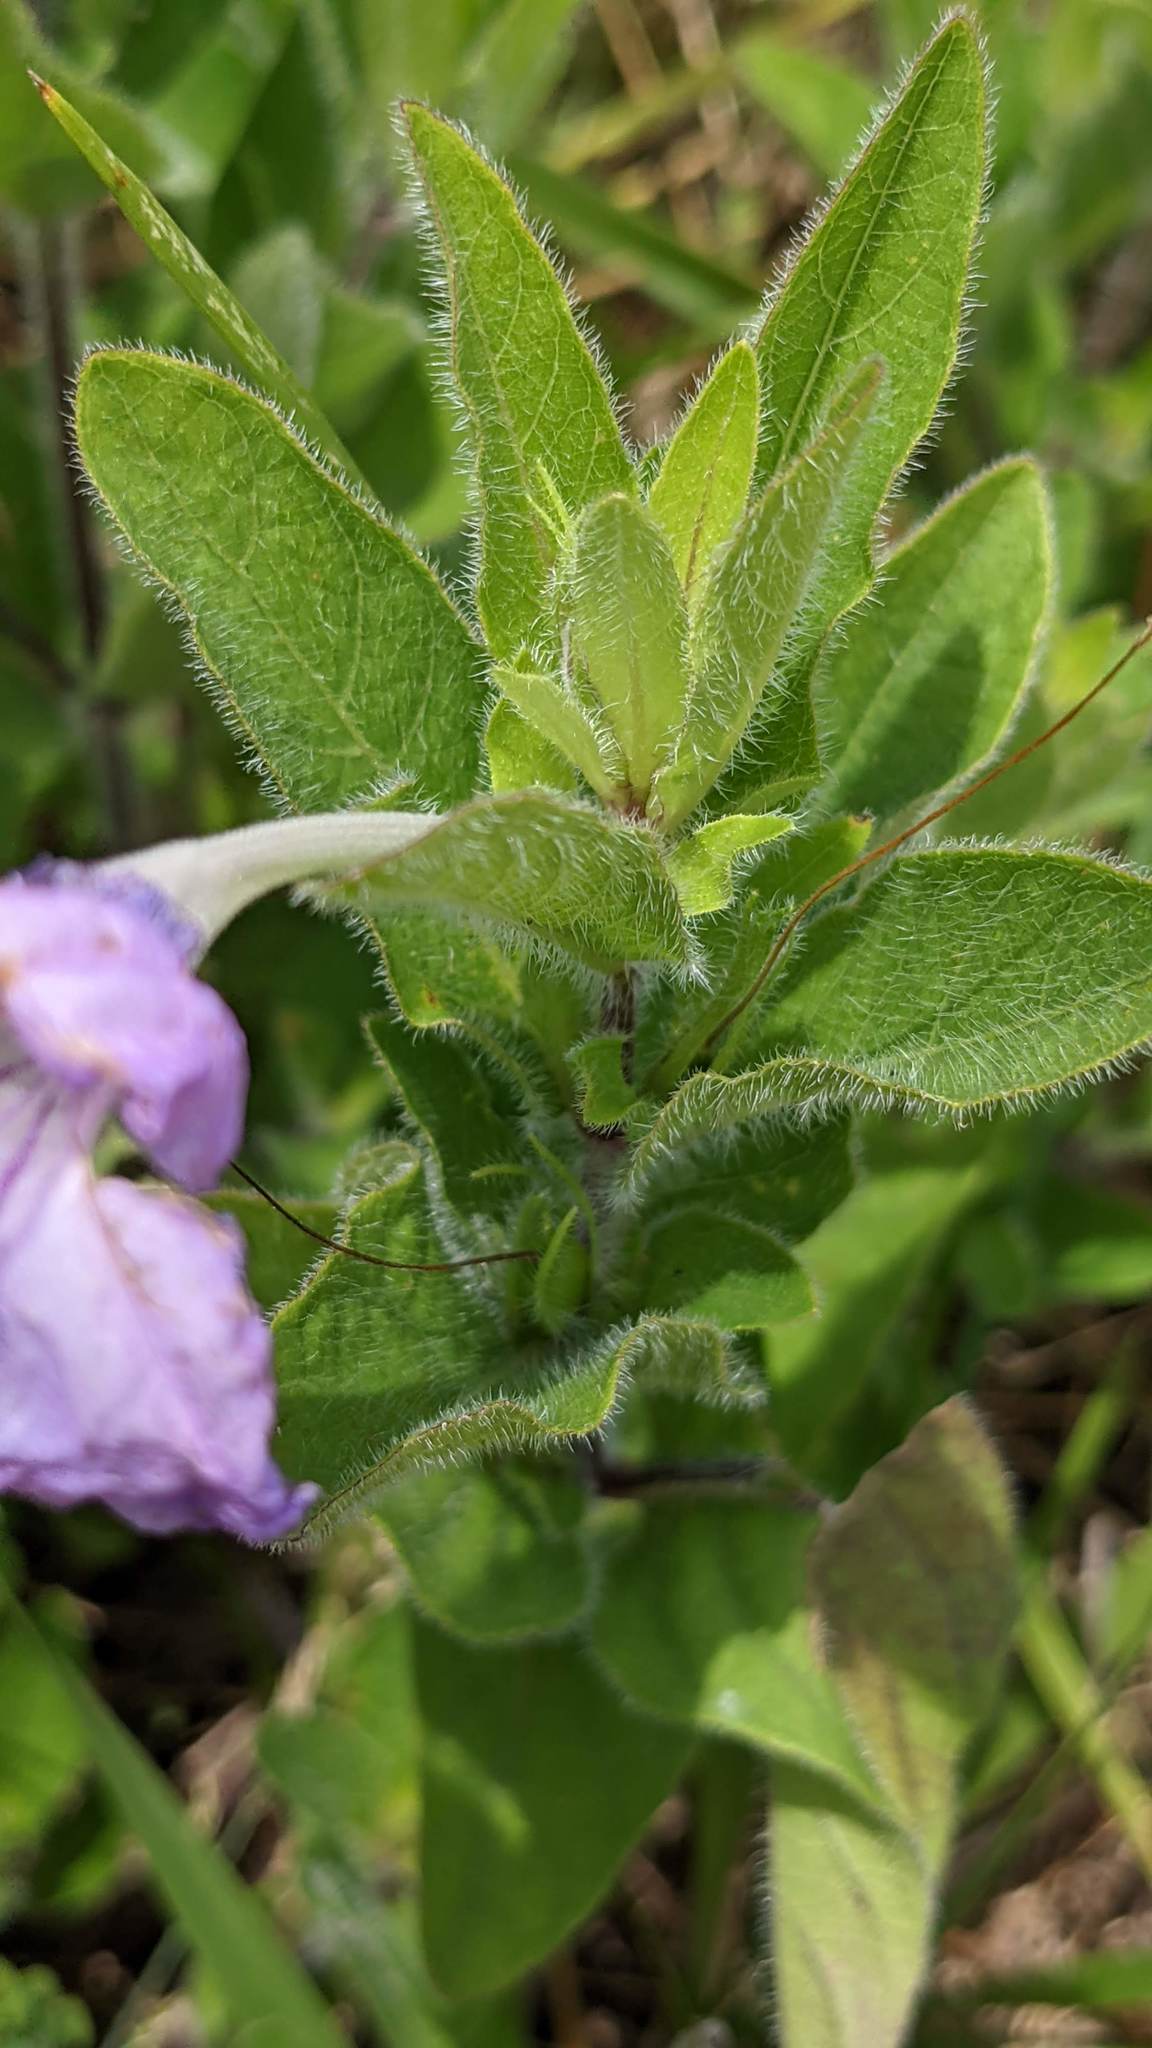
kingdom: Plantae
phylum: Tracheophyta
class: Magnoliopsida
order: Lamiales
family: Acanthaceae
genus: Ruellia
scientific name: Ruellia humilis
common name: Fringe-leaf ruellia
